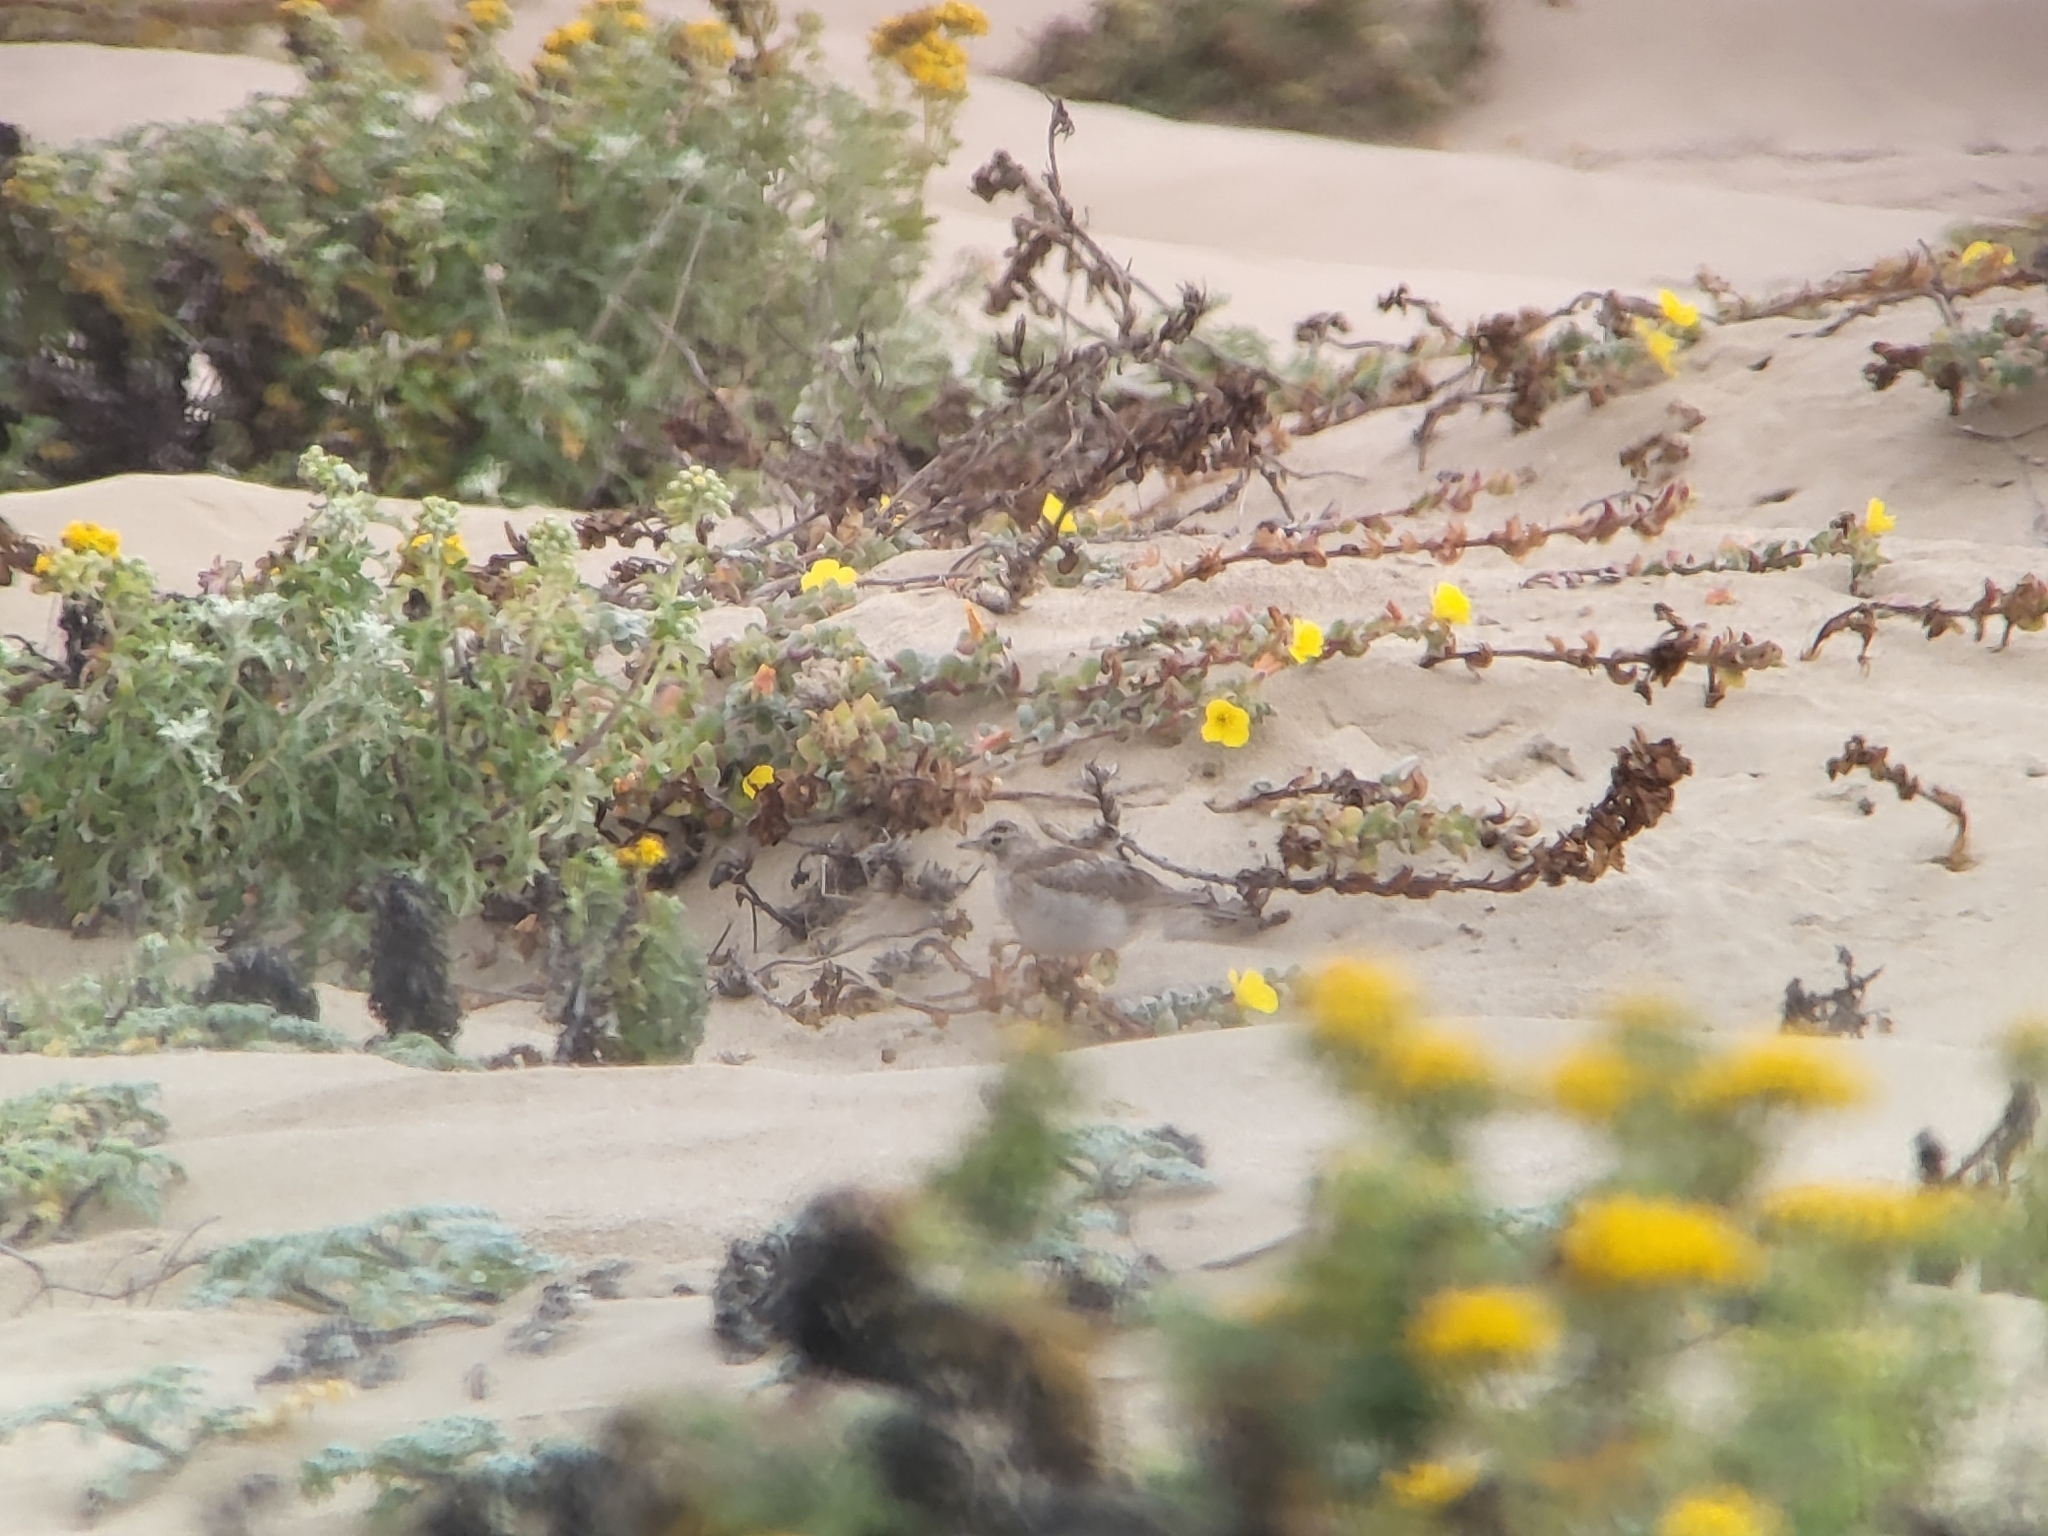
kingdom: Animalia
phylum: Chordata
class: Aves
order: Passeriformes
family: Alaudidae
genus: Eremophila
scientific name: Eremophila alpestris
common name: Horned lark
